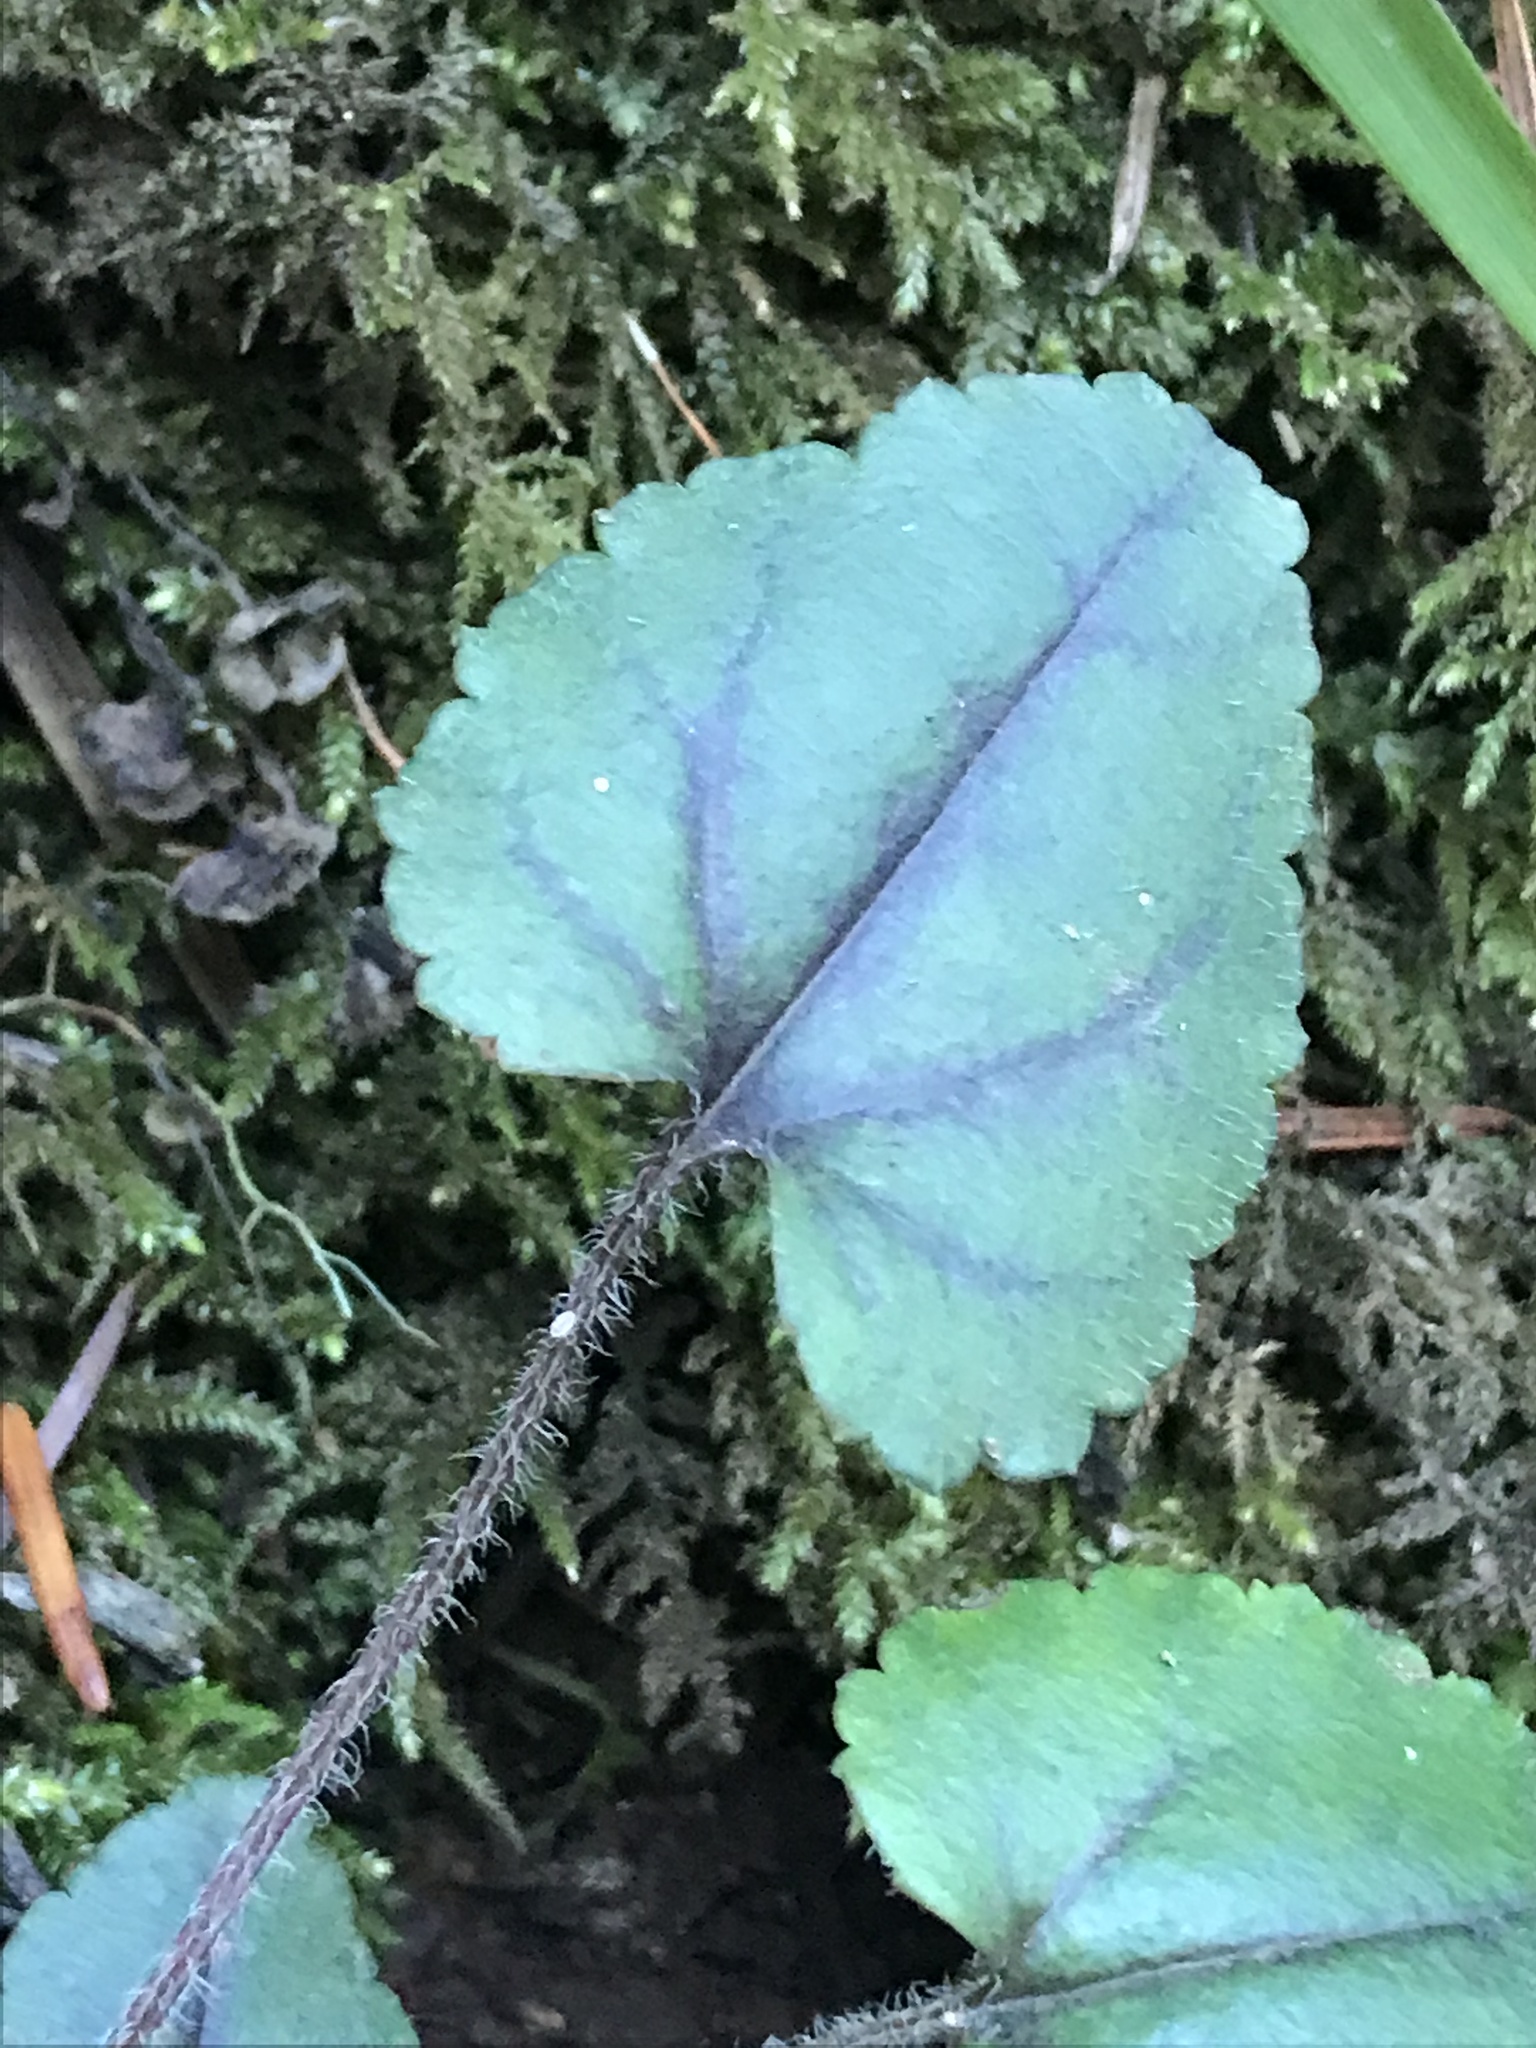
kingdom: Plantae
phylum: Tracheophyta
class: Magnoliopsida
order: Lamiales
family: Plantaginaceae
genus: Synthyris
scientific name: Synthyris cordata
